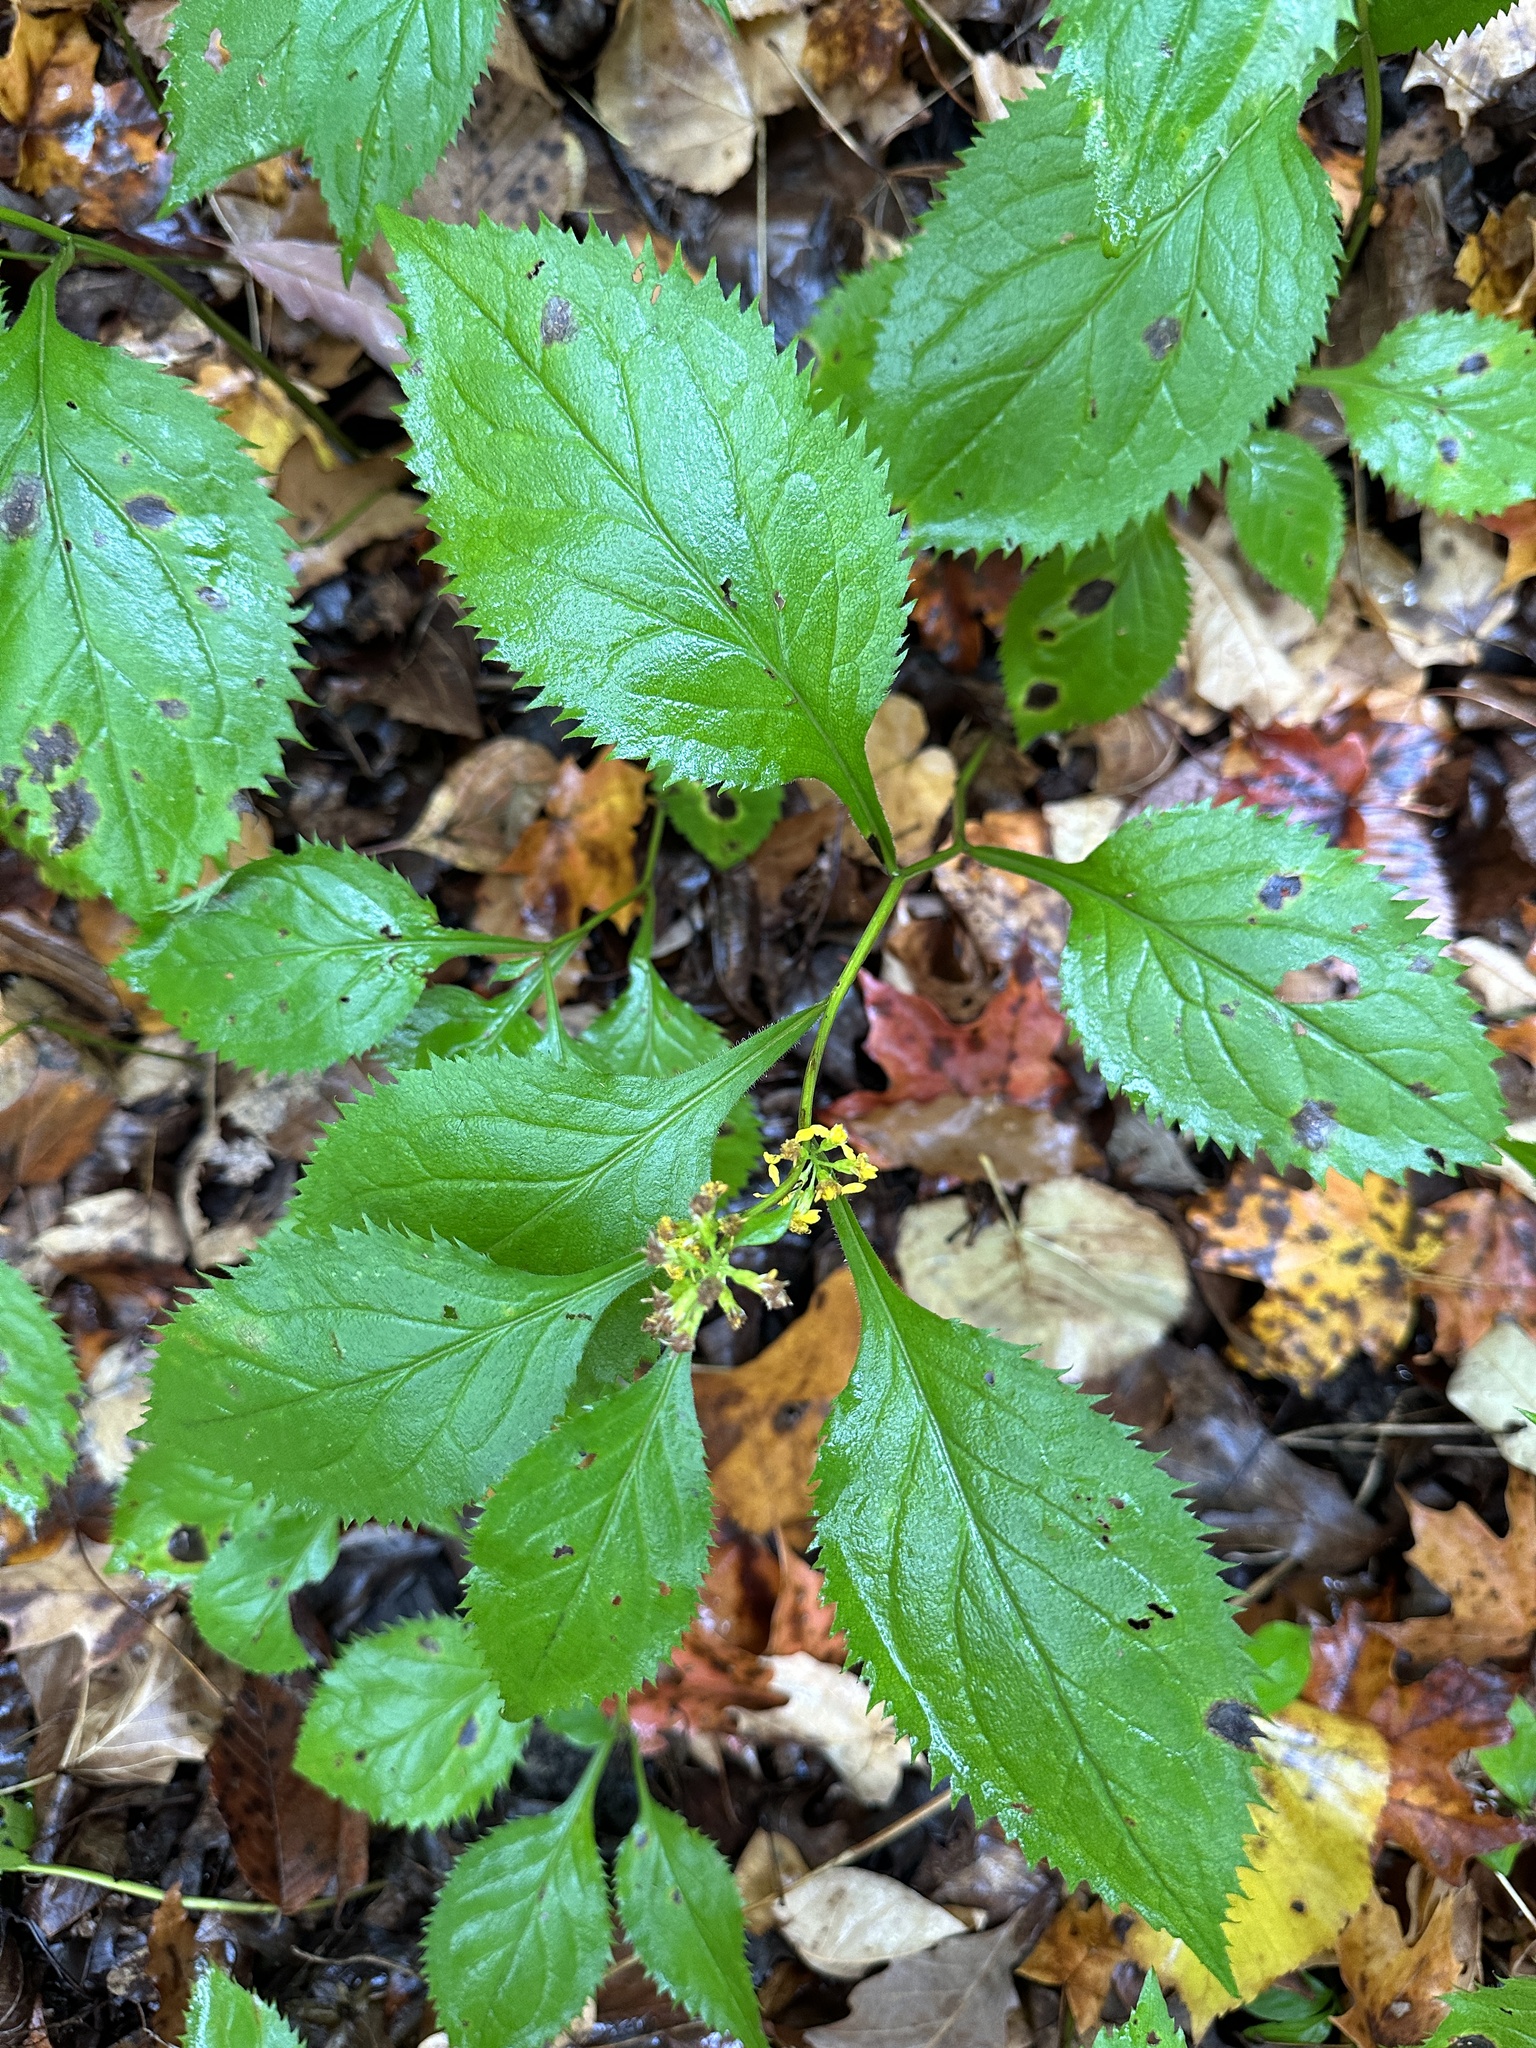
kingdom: Plantae
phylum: Tracheophyta
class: Magnoliopsida
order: Asterales
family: Asteraceae
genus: Solidago
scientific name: Solidago flexicaulis
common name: Zig-zag goldenrod
